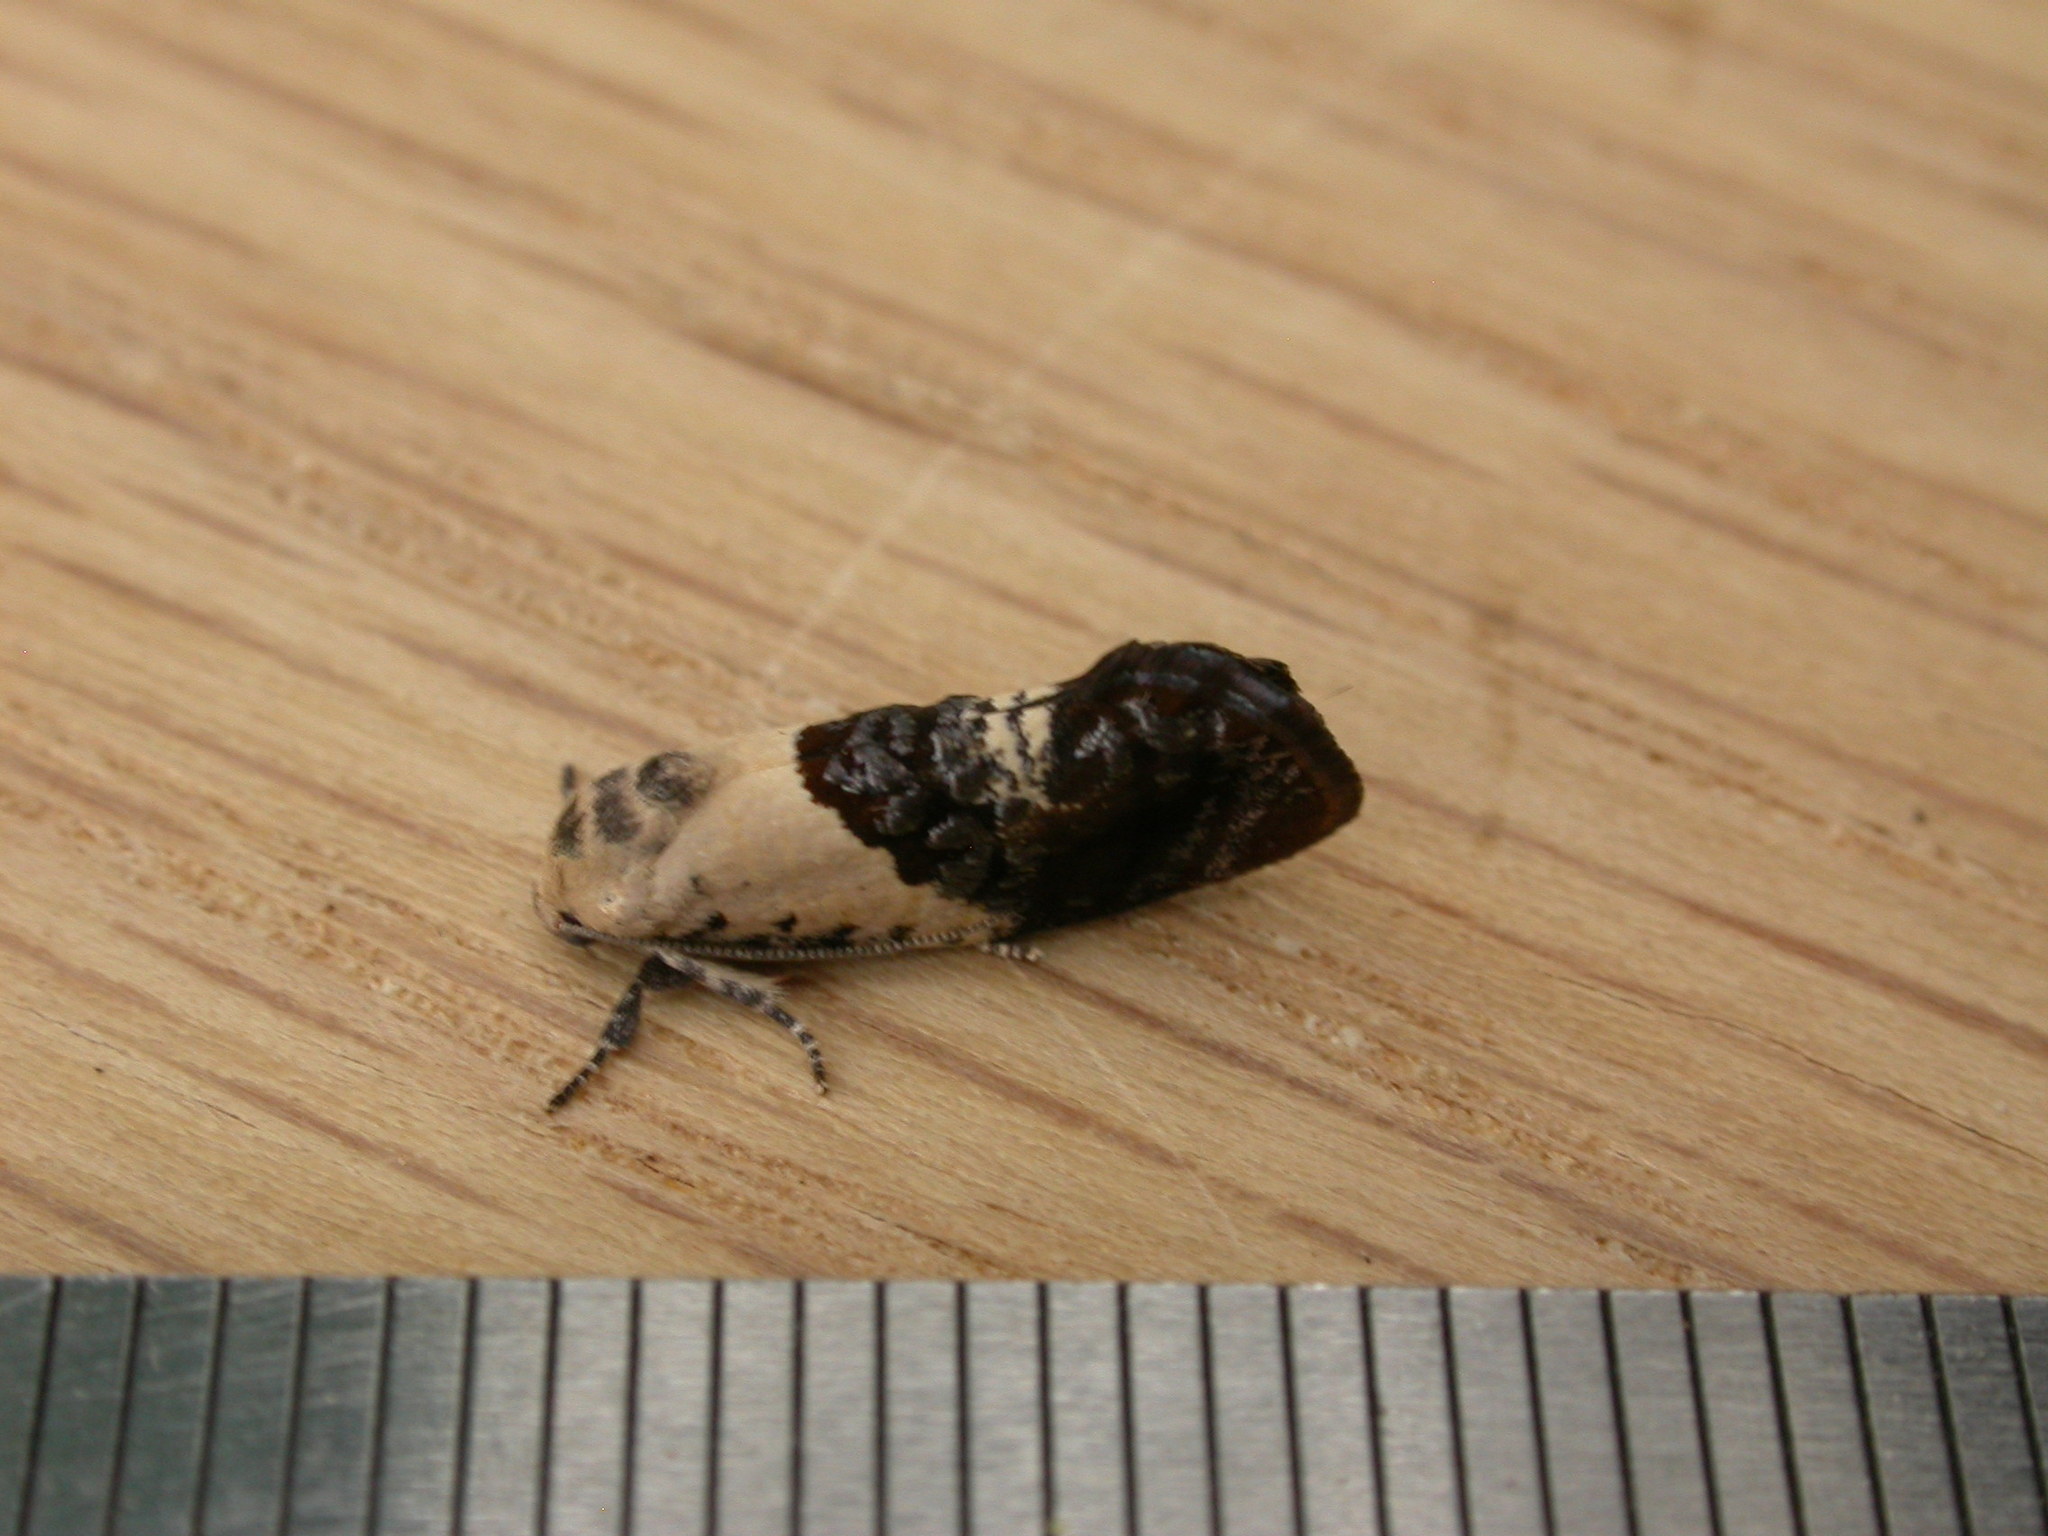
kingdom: Animalia
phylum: Arthropoda
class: Insecta
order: Lepidoptera
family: Depressariidae
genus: Hypertropha
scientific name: Hypertropha chlaenota
